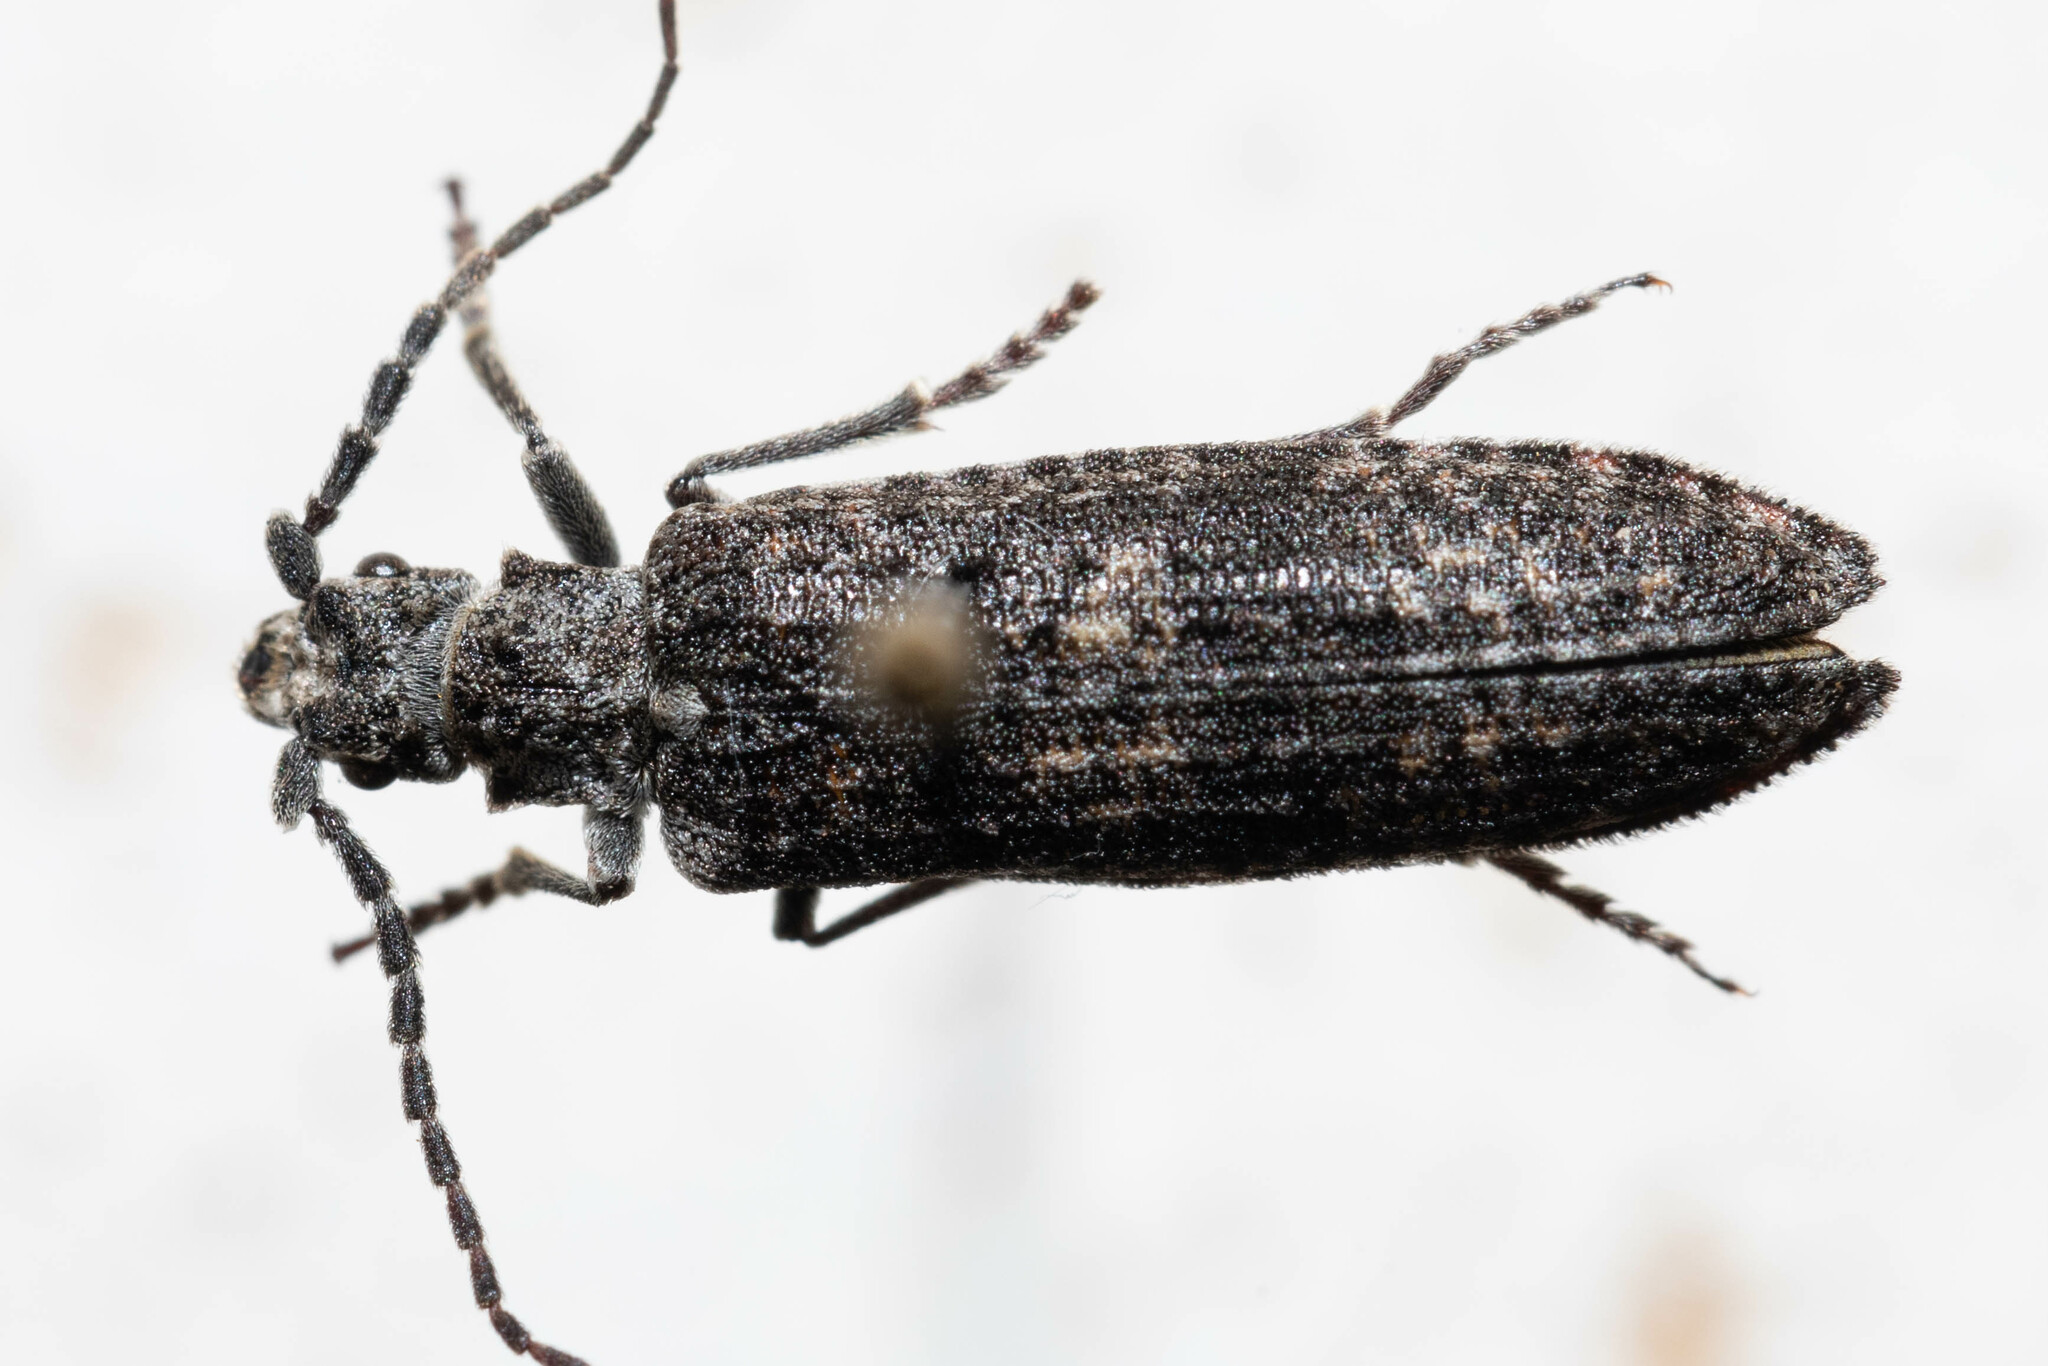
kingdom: Animalia
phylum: Arthropoda
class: Insecta
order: Coleoptera
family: Cupedidae
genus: Priacma
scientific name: Priacma serrata
